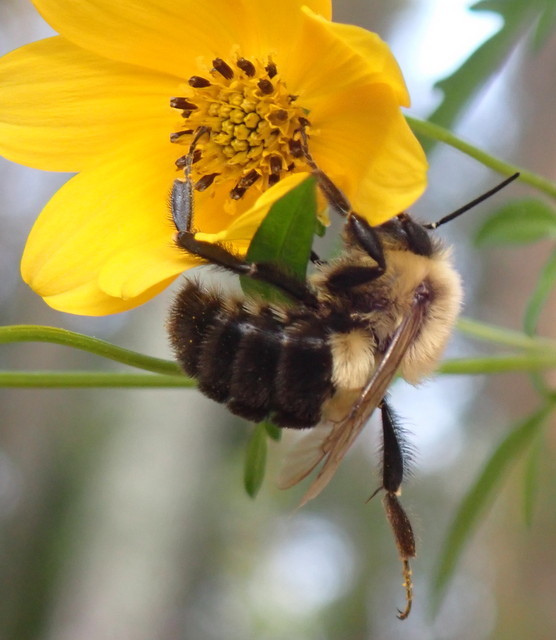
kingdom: Animalia
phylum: Arthropoda
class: Insecta
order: Hymenoptera
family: Apidae
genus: Bombus
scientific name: Bombus impatiens
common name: Common eastern bumble bee
